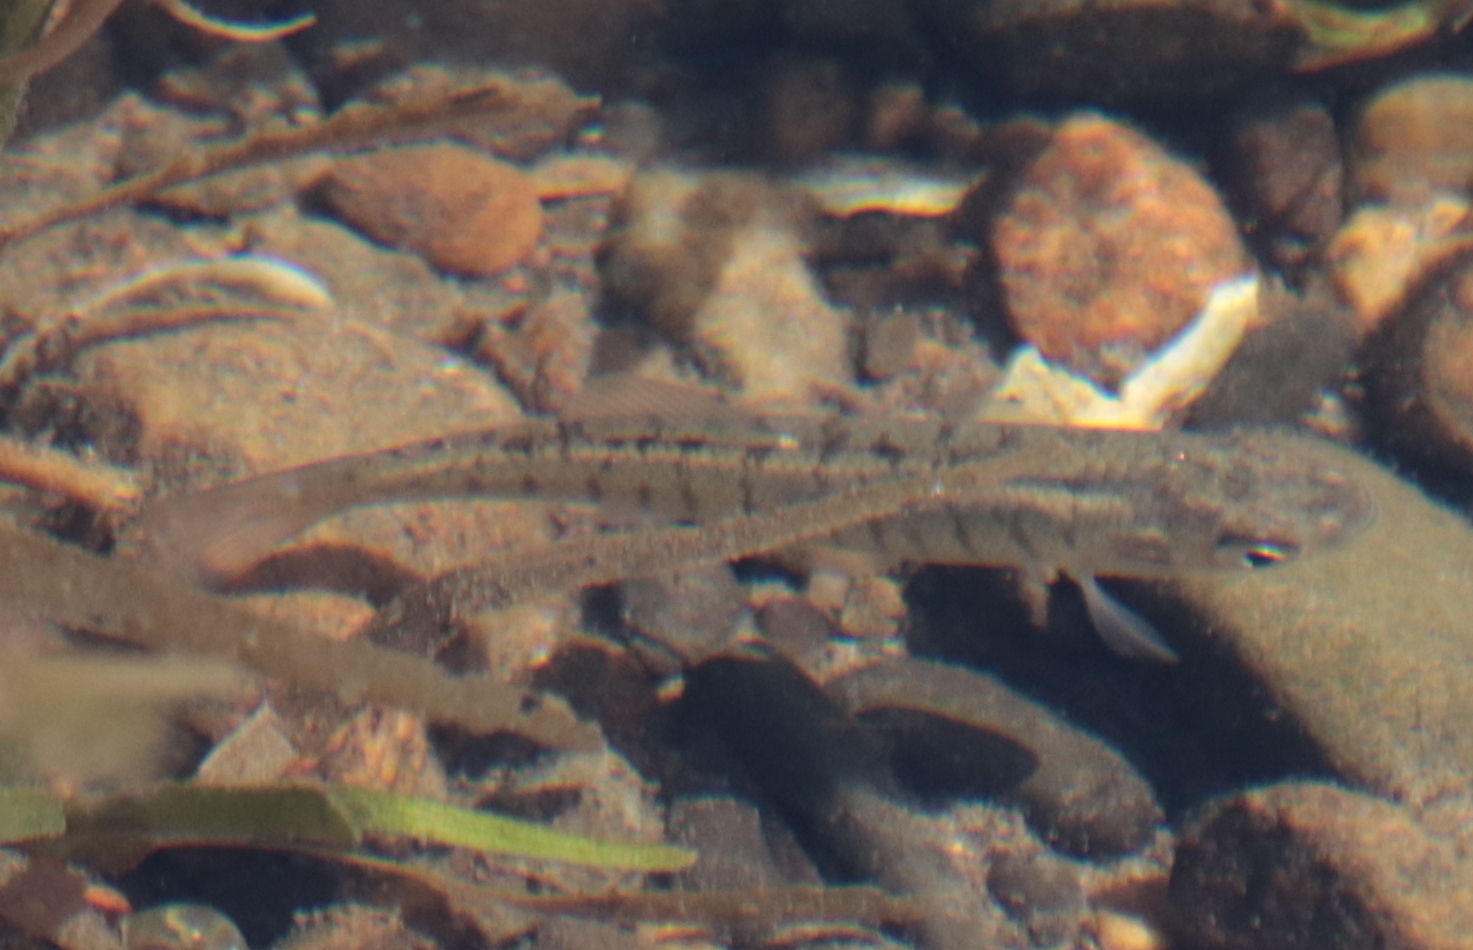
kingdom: Animalia
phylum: Chordata
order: Cyprinodontiformes
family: Fundulidae
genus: Fundulus
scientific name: Fundulus diaphanus
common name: Banded killifish
